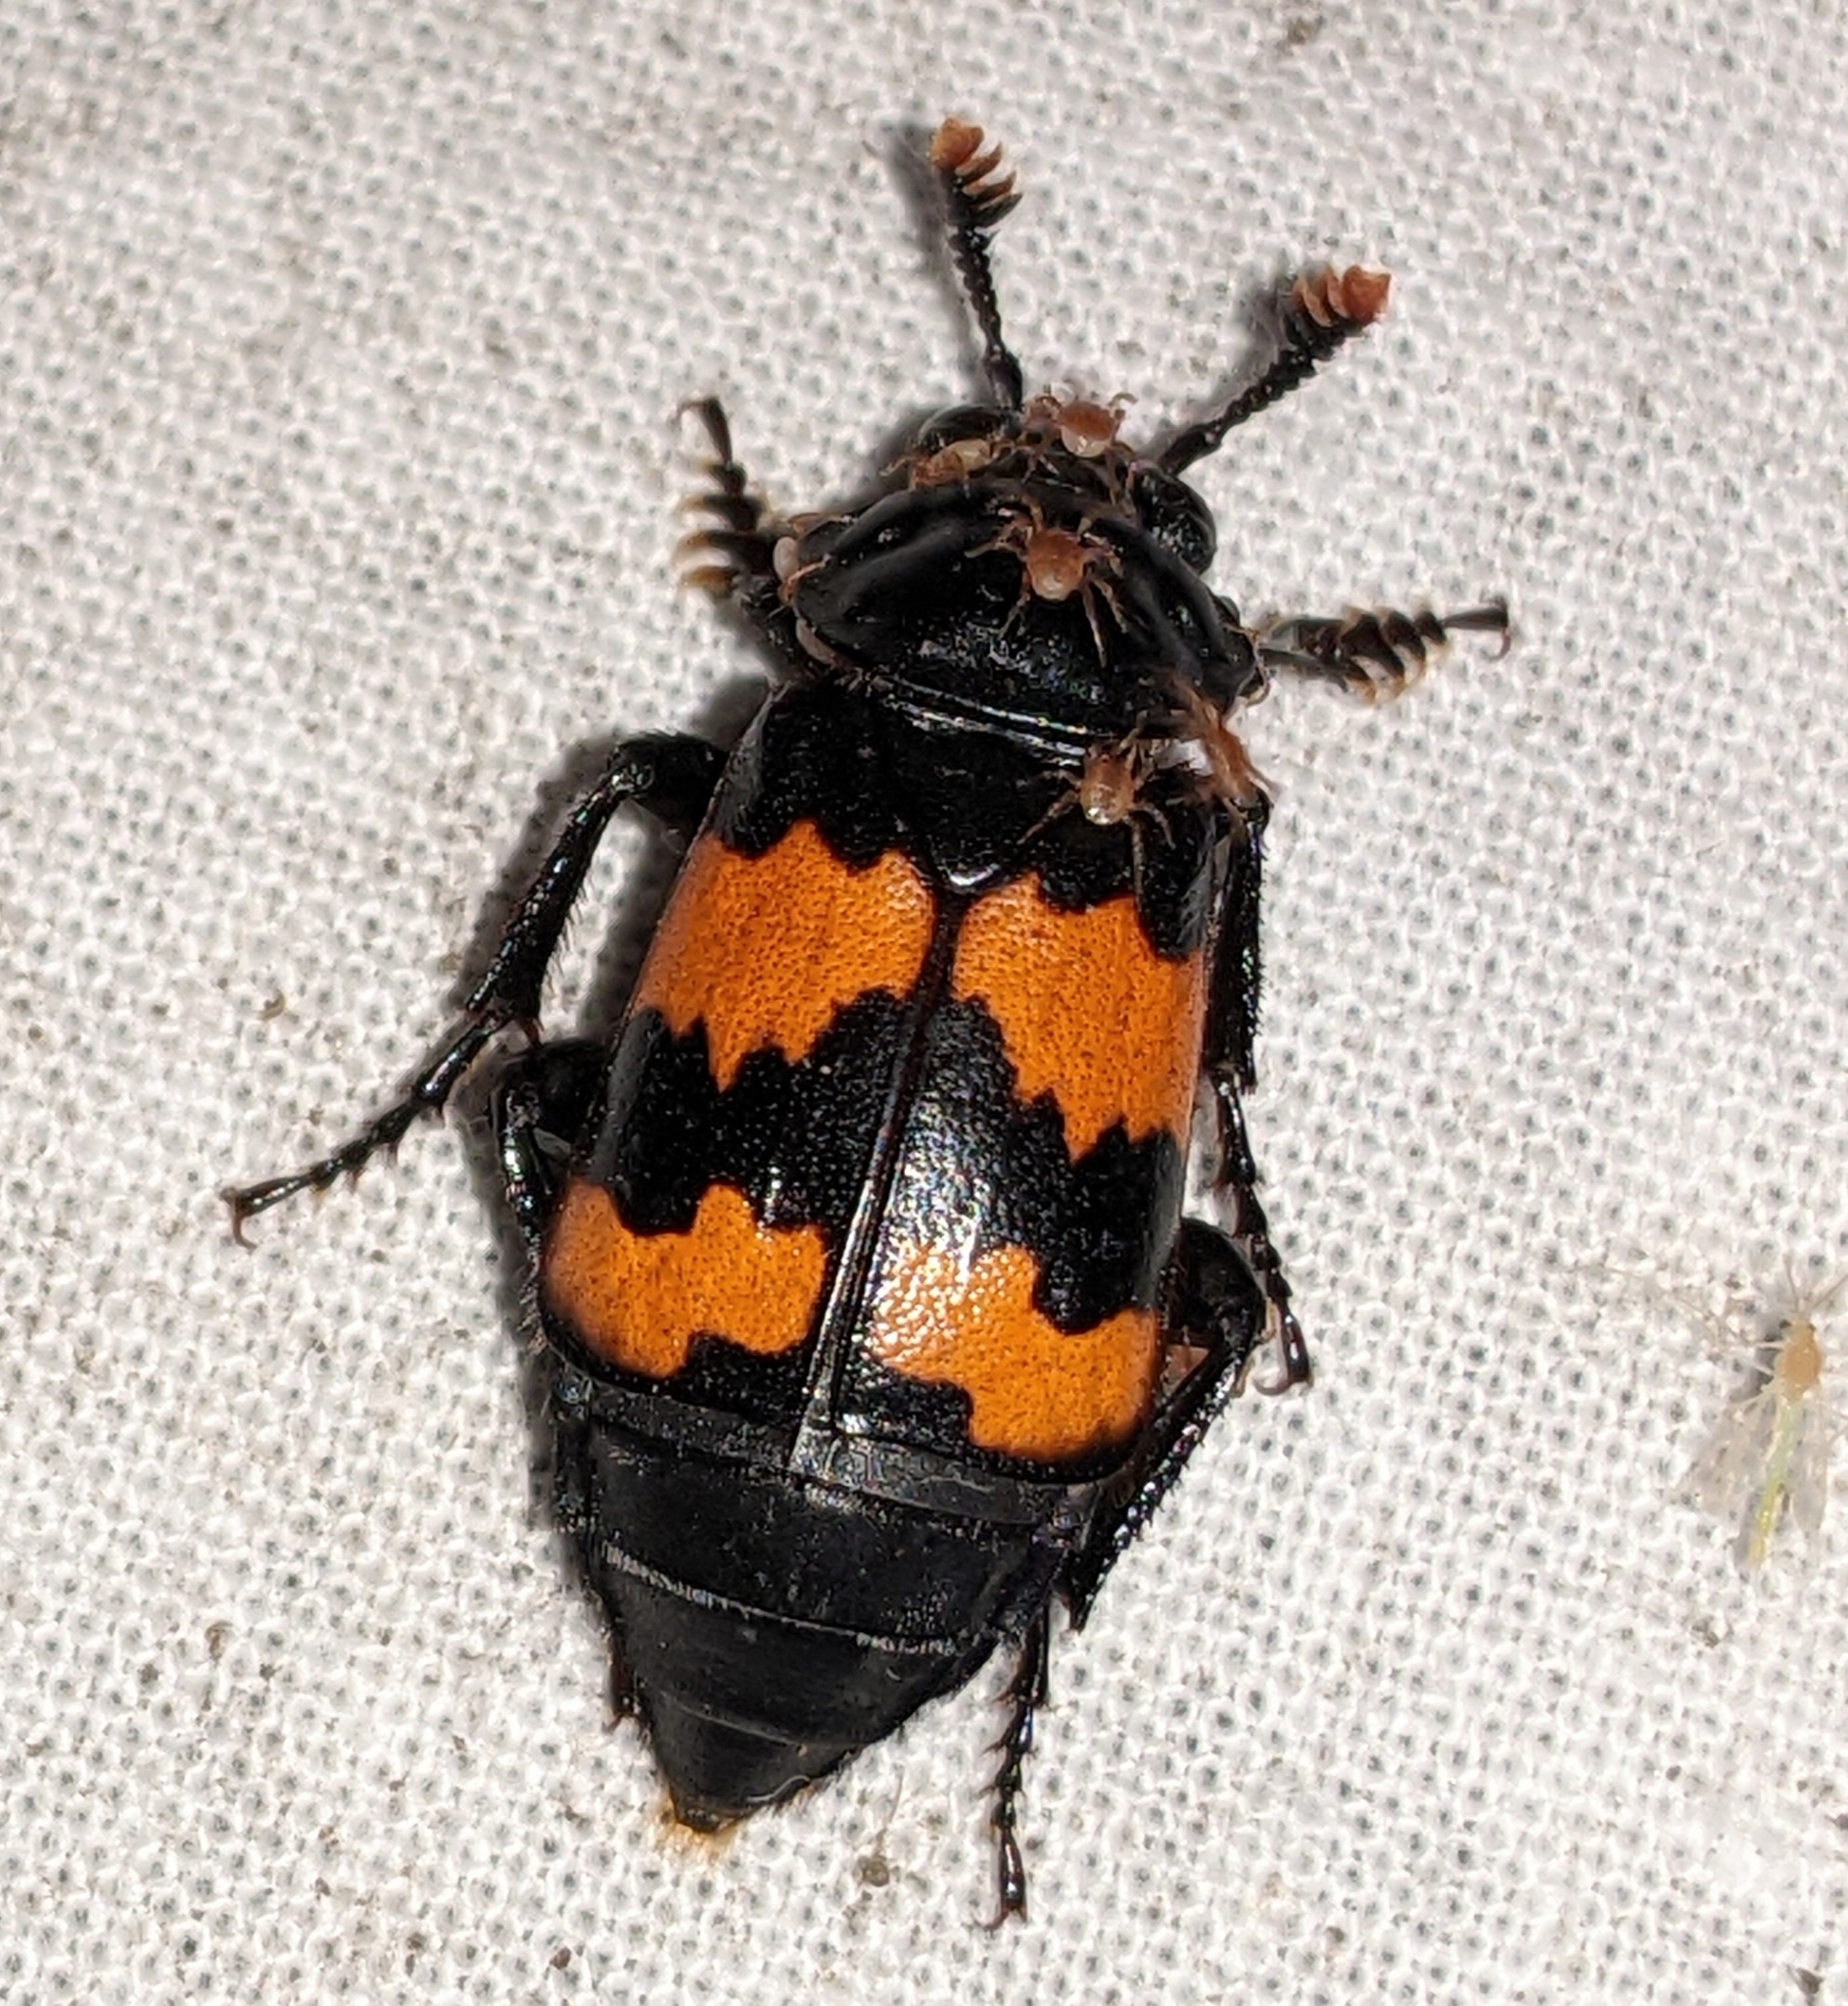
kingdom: Animalia
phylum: Arthropoda
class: Insecta
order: Coleoptera
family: Staphylinidae
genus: Nicrophorus
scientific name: Nicrophorus investigator
